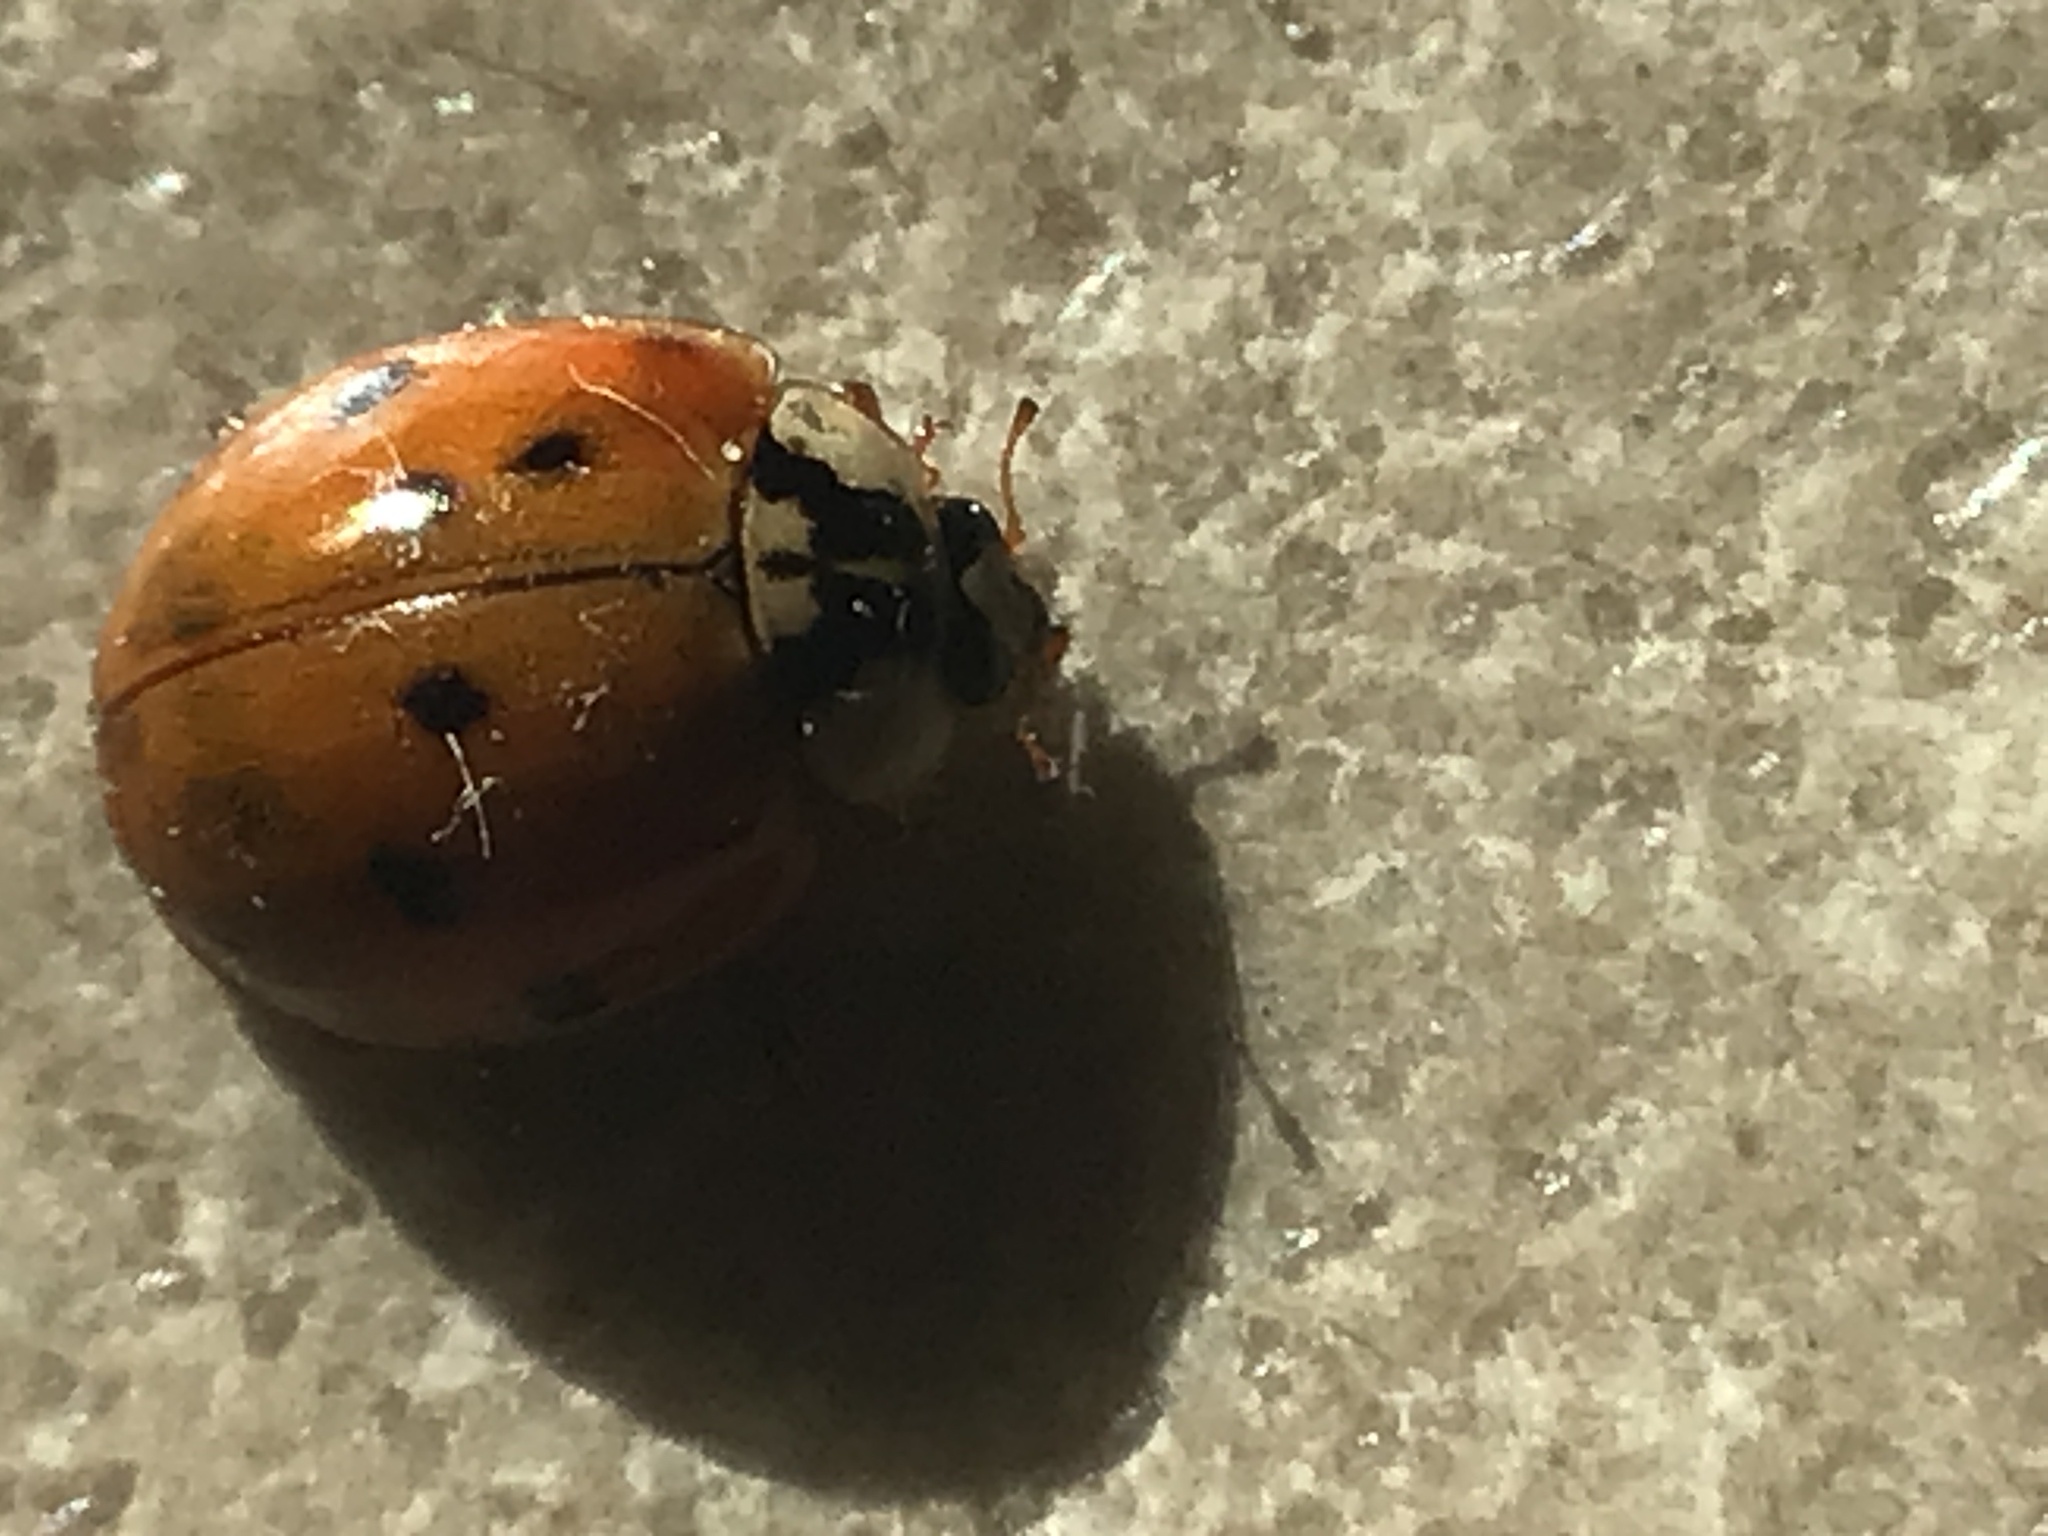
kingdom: Animalia
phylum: Arthropoda
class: Insecta
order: Coleoptera
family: Coccinellidae
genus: Harmonia
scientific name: Harmonia axyridis
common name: Harlequin ladybird
